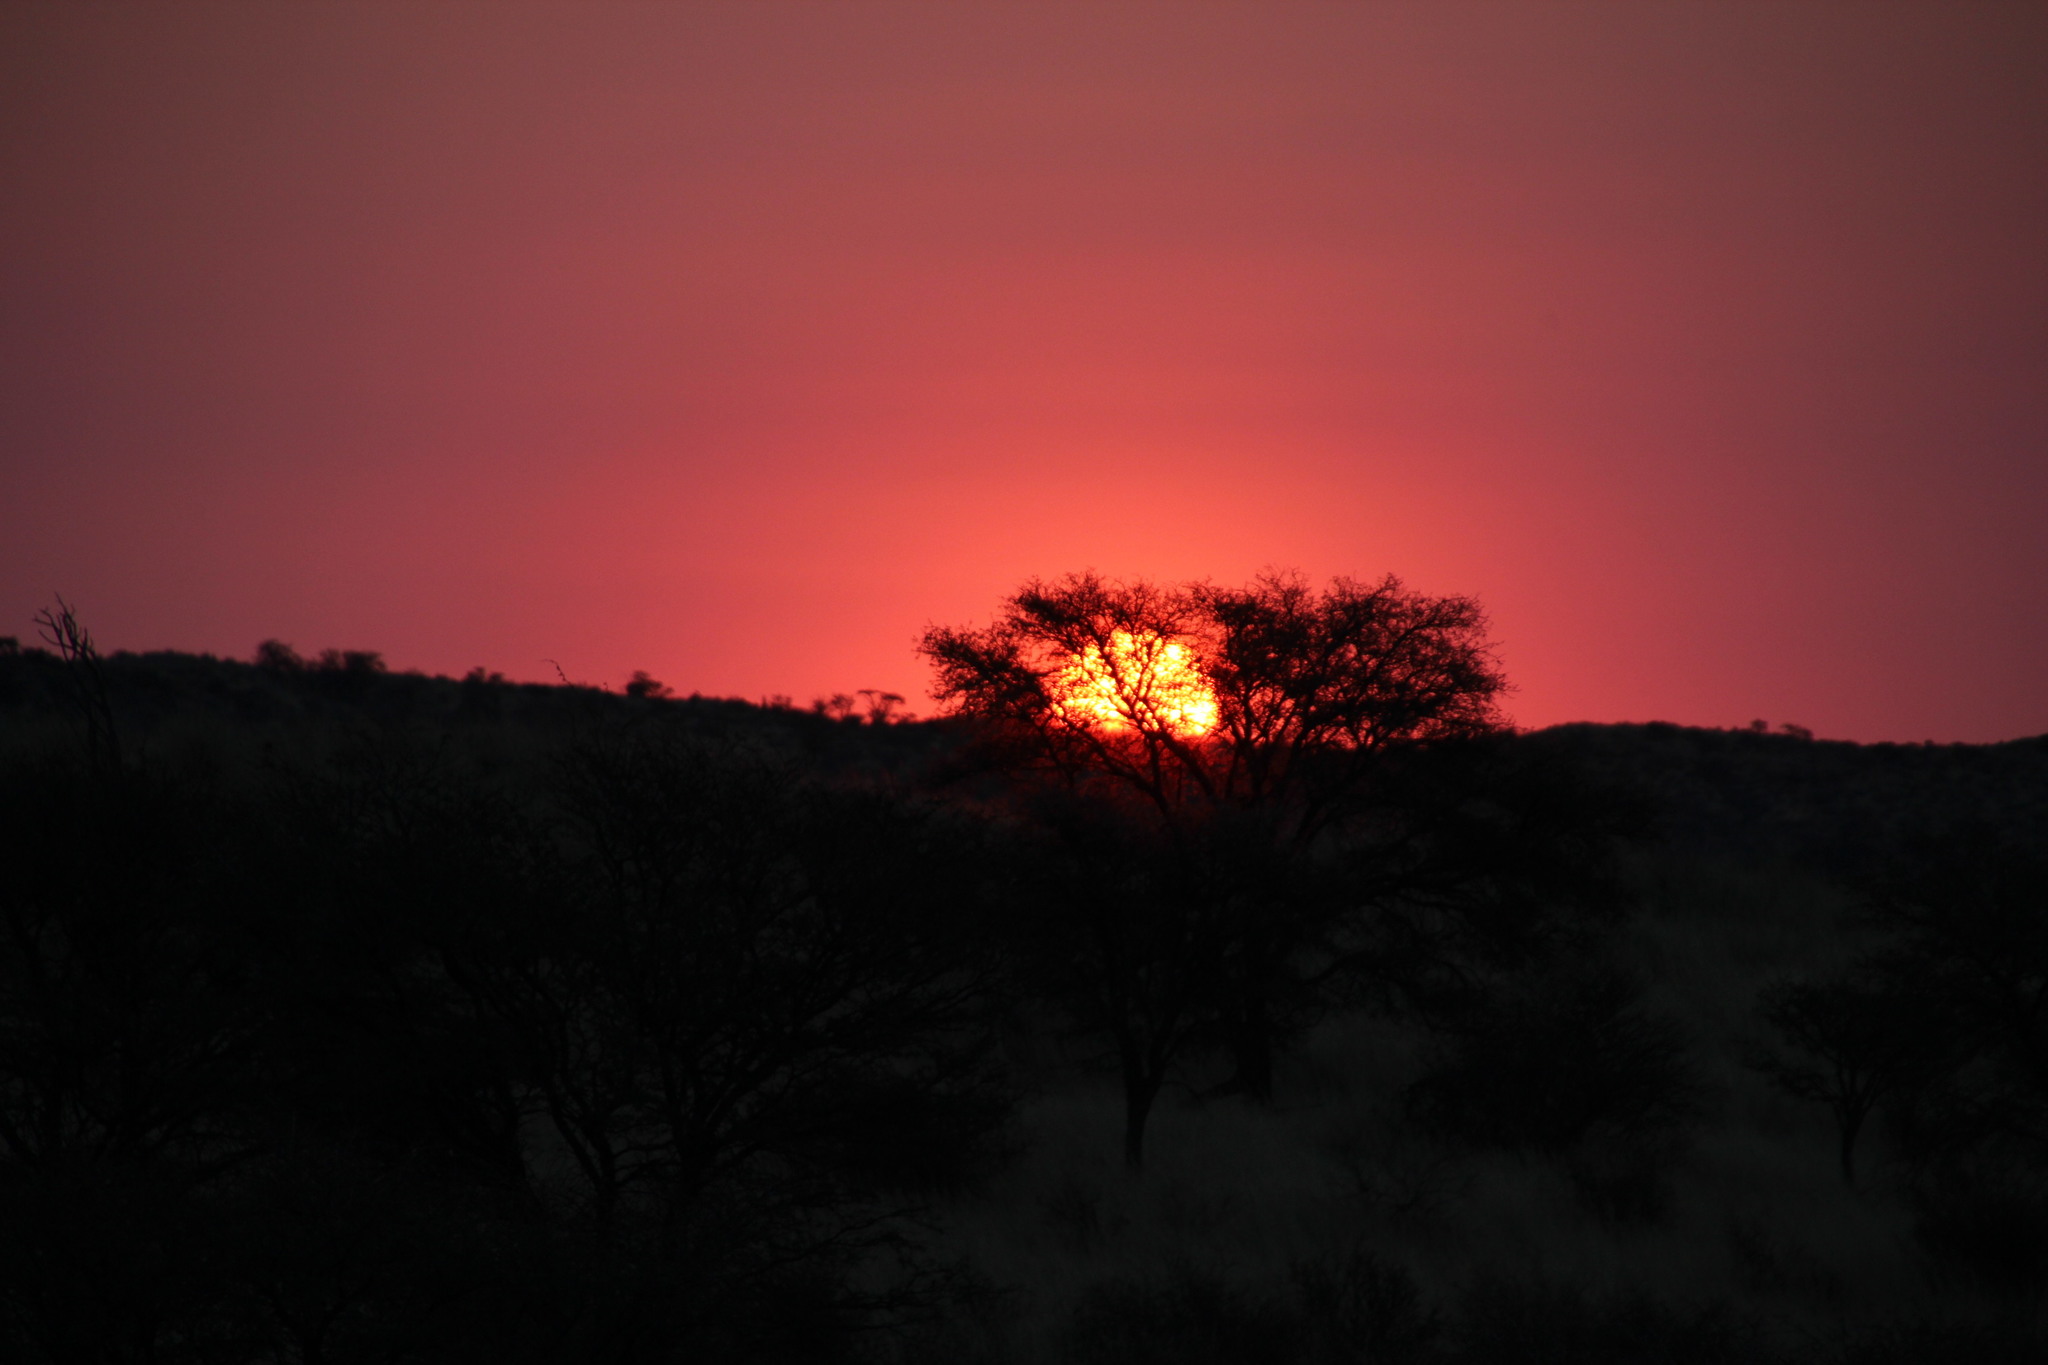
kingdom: Plantae
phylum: Tracheophyta
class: Magnoliopsida
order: Fabales
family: Fabaceae
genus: Vachellia
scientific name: Vachellia erioloba
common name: Camel thorn
